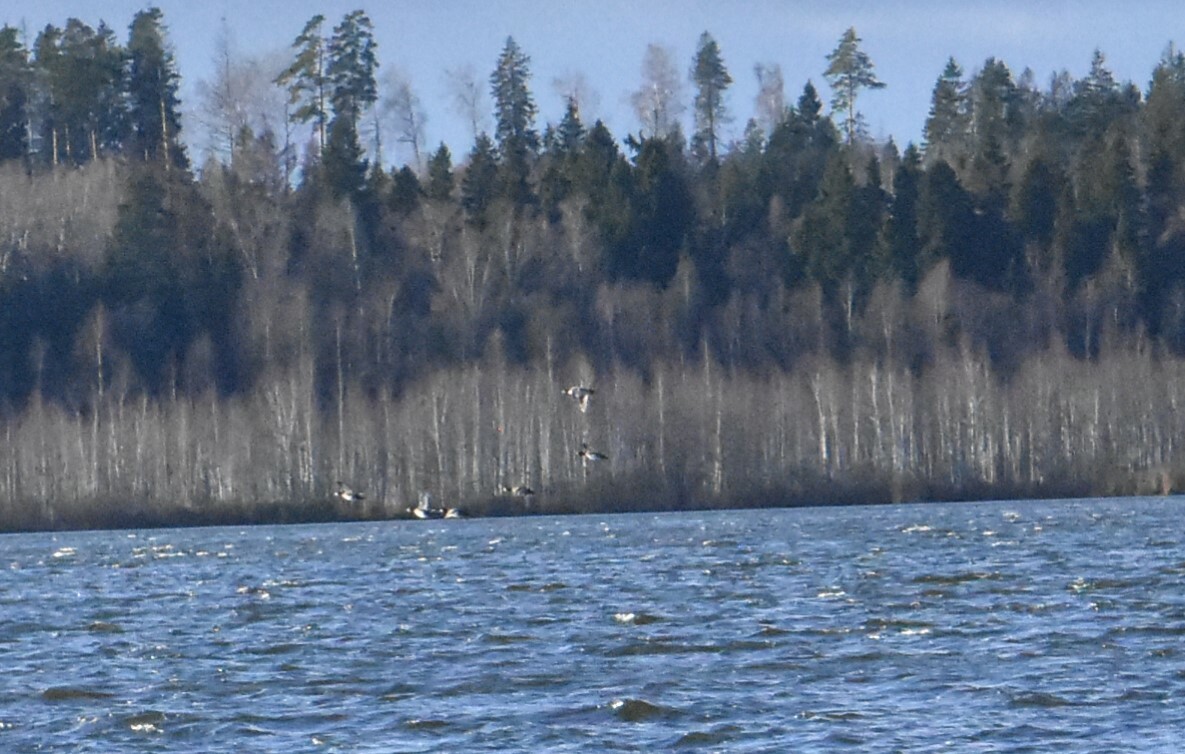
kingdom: Animalia
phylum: Chordata
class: Aves
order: Anseriformes
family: Anatidae
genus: Bucephala
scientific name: Bucephala clangula
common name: Common goldeneye
